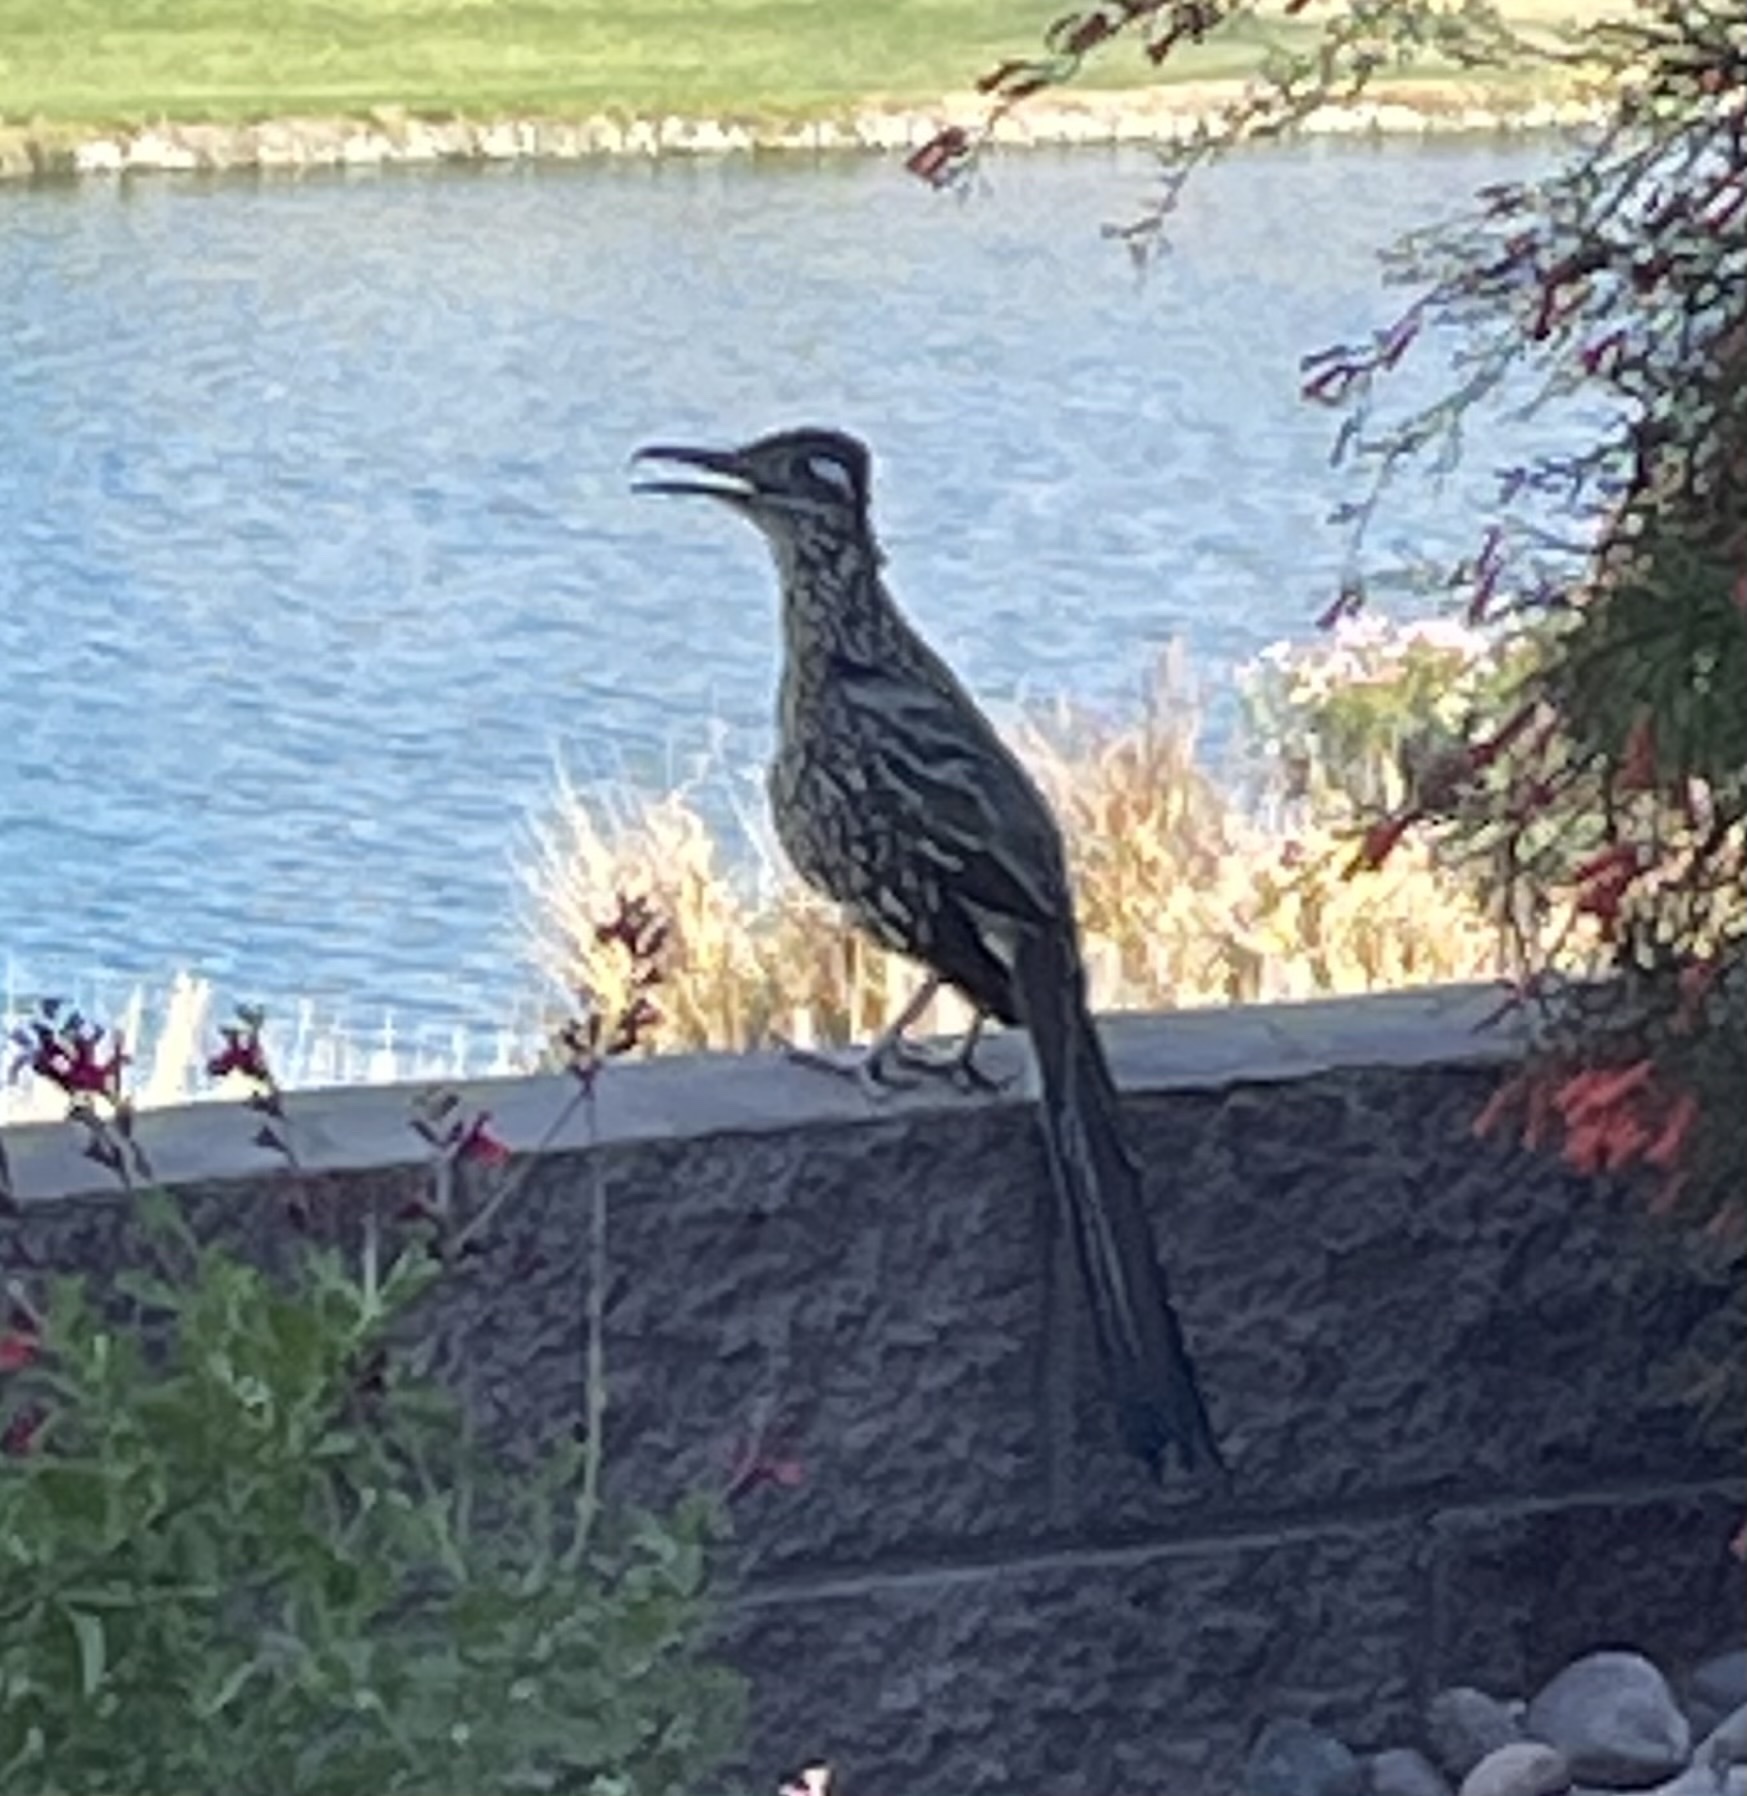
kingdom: Animalia
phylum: Chordata
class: Aves
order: Cuculiformes
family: Cuculidae
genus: Geococcyx
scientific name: Geococcyx californianus
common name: Greater roadrunner
